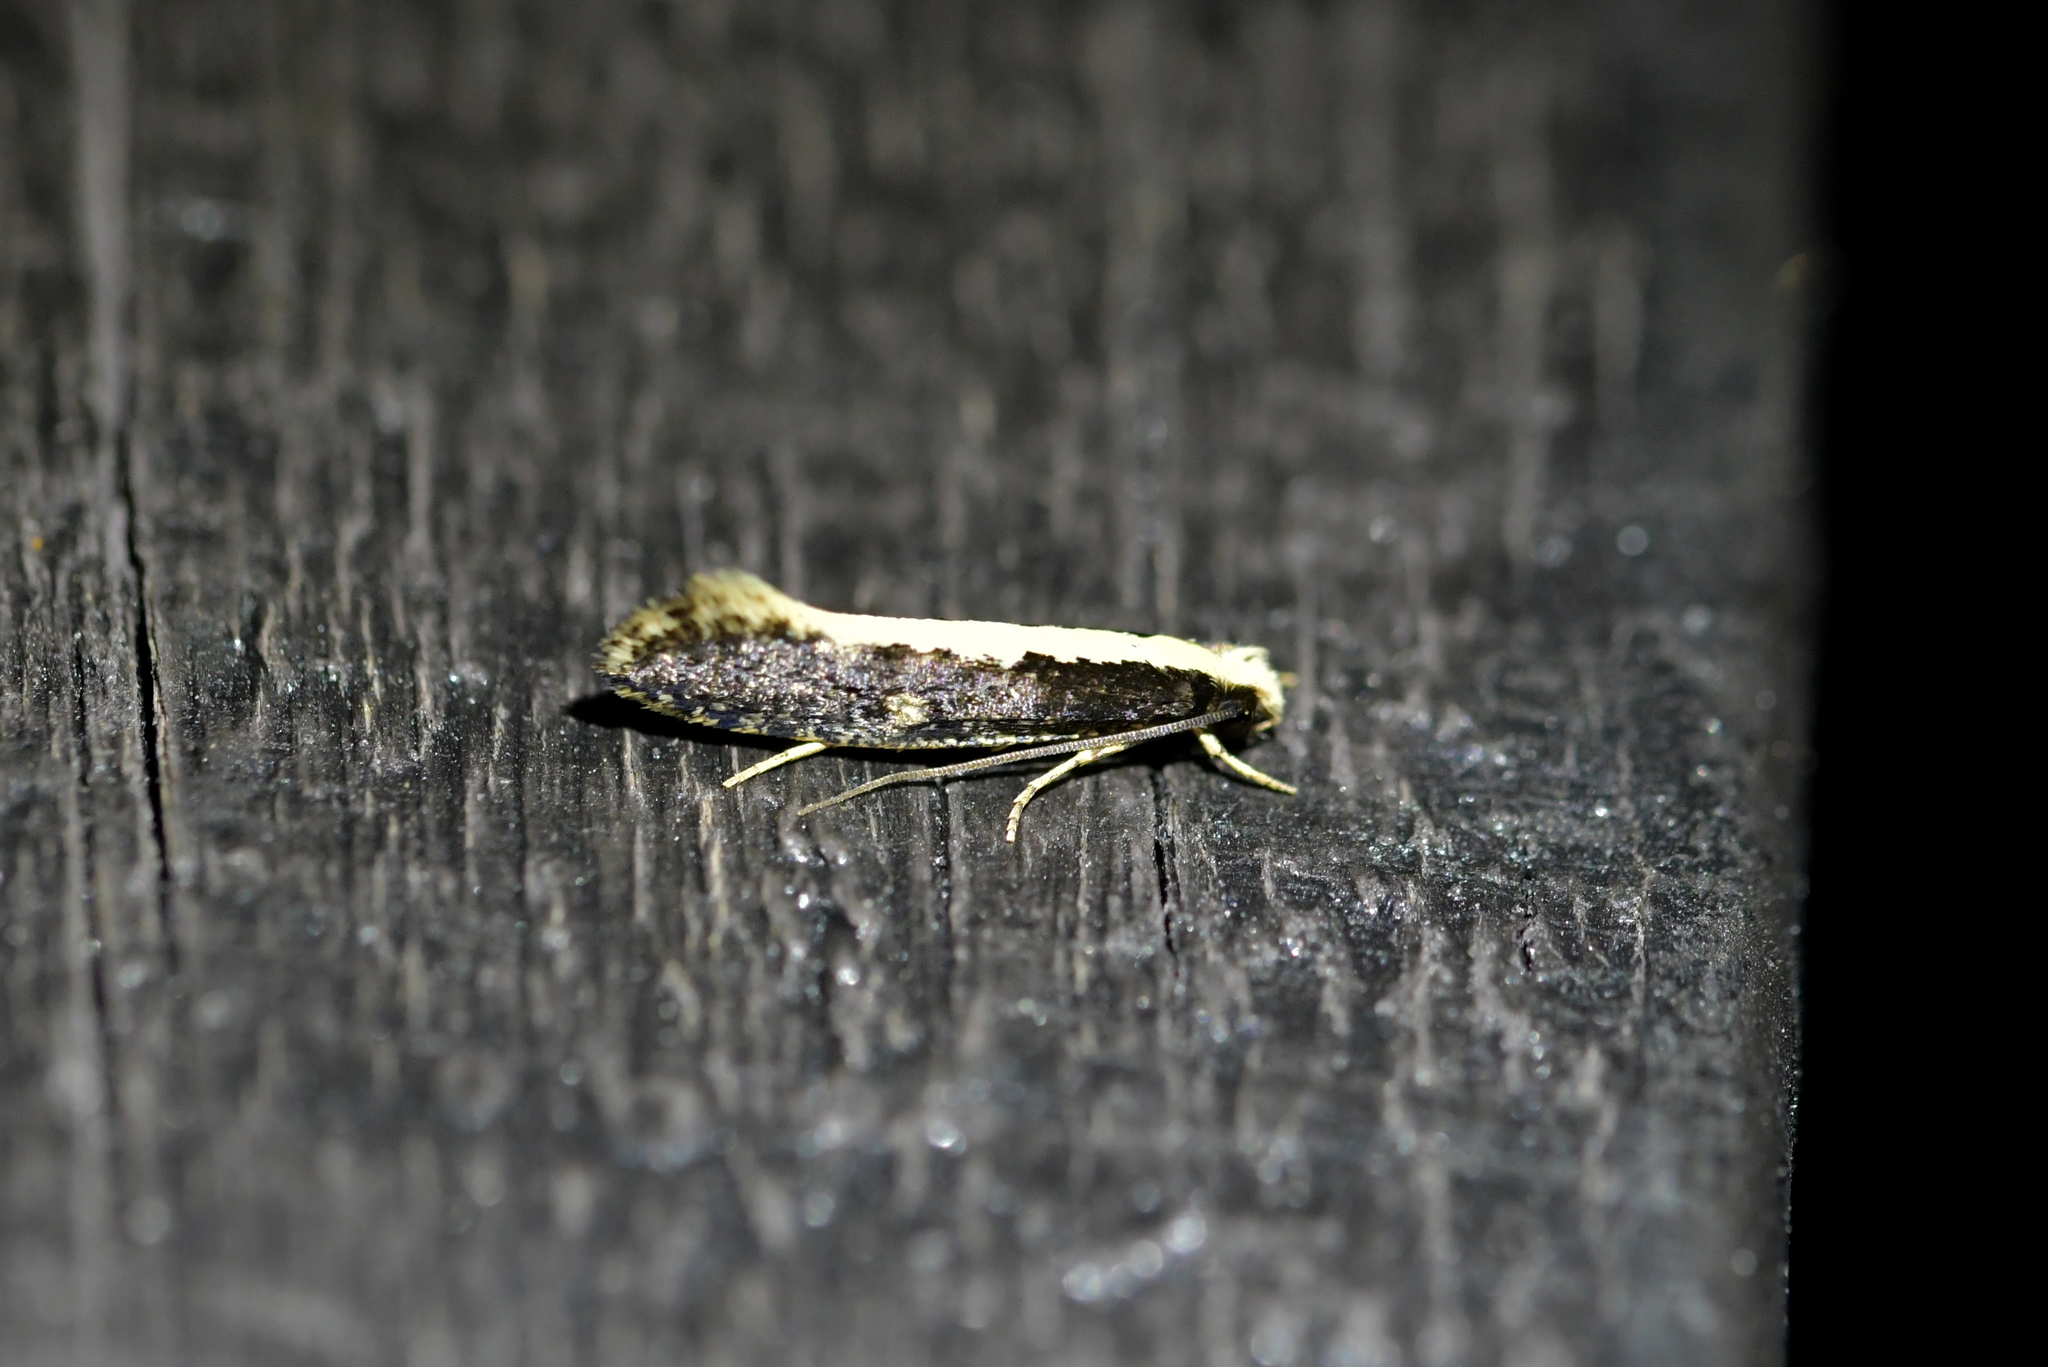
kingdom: Animalia
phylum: Arthropoda
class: Insecta
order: Lepidoptera
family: Tineidae
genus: Monopis
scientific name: Monopis ethelella
